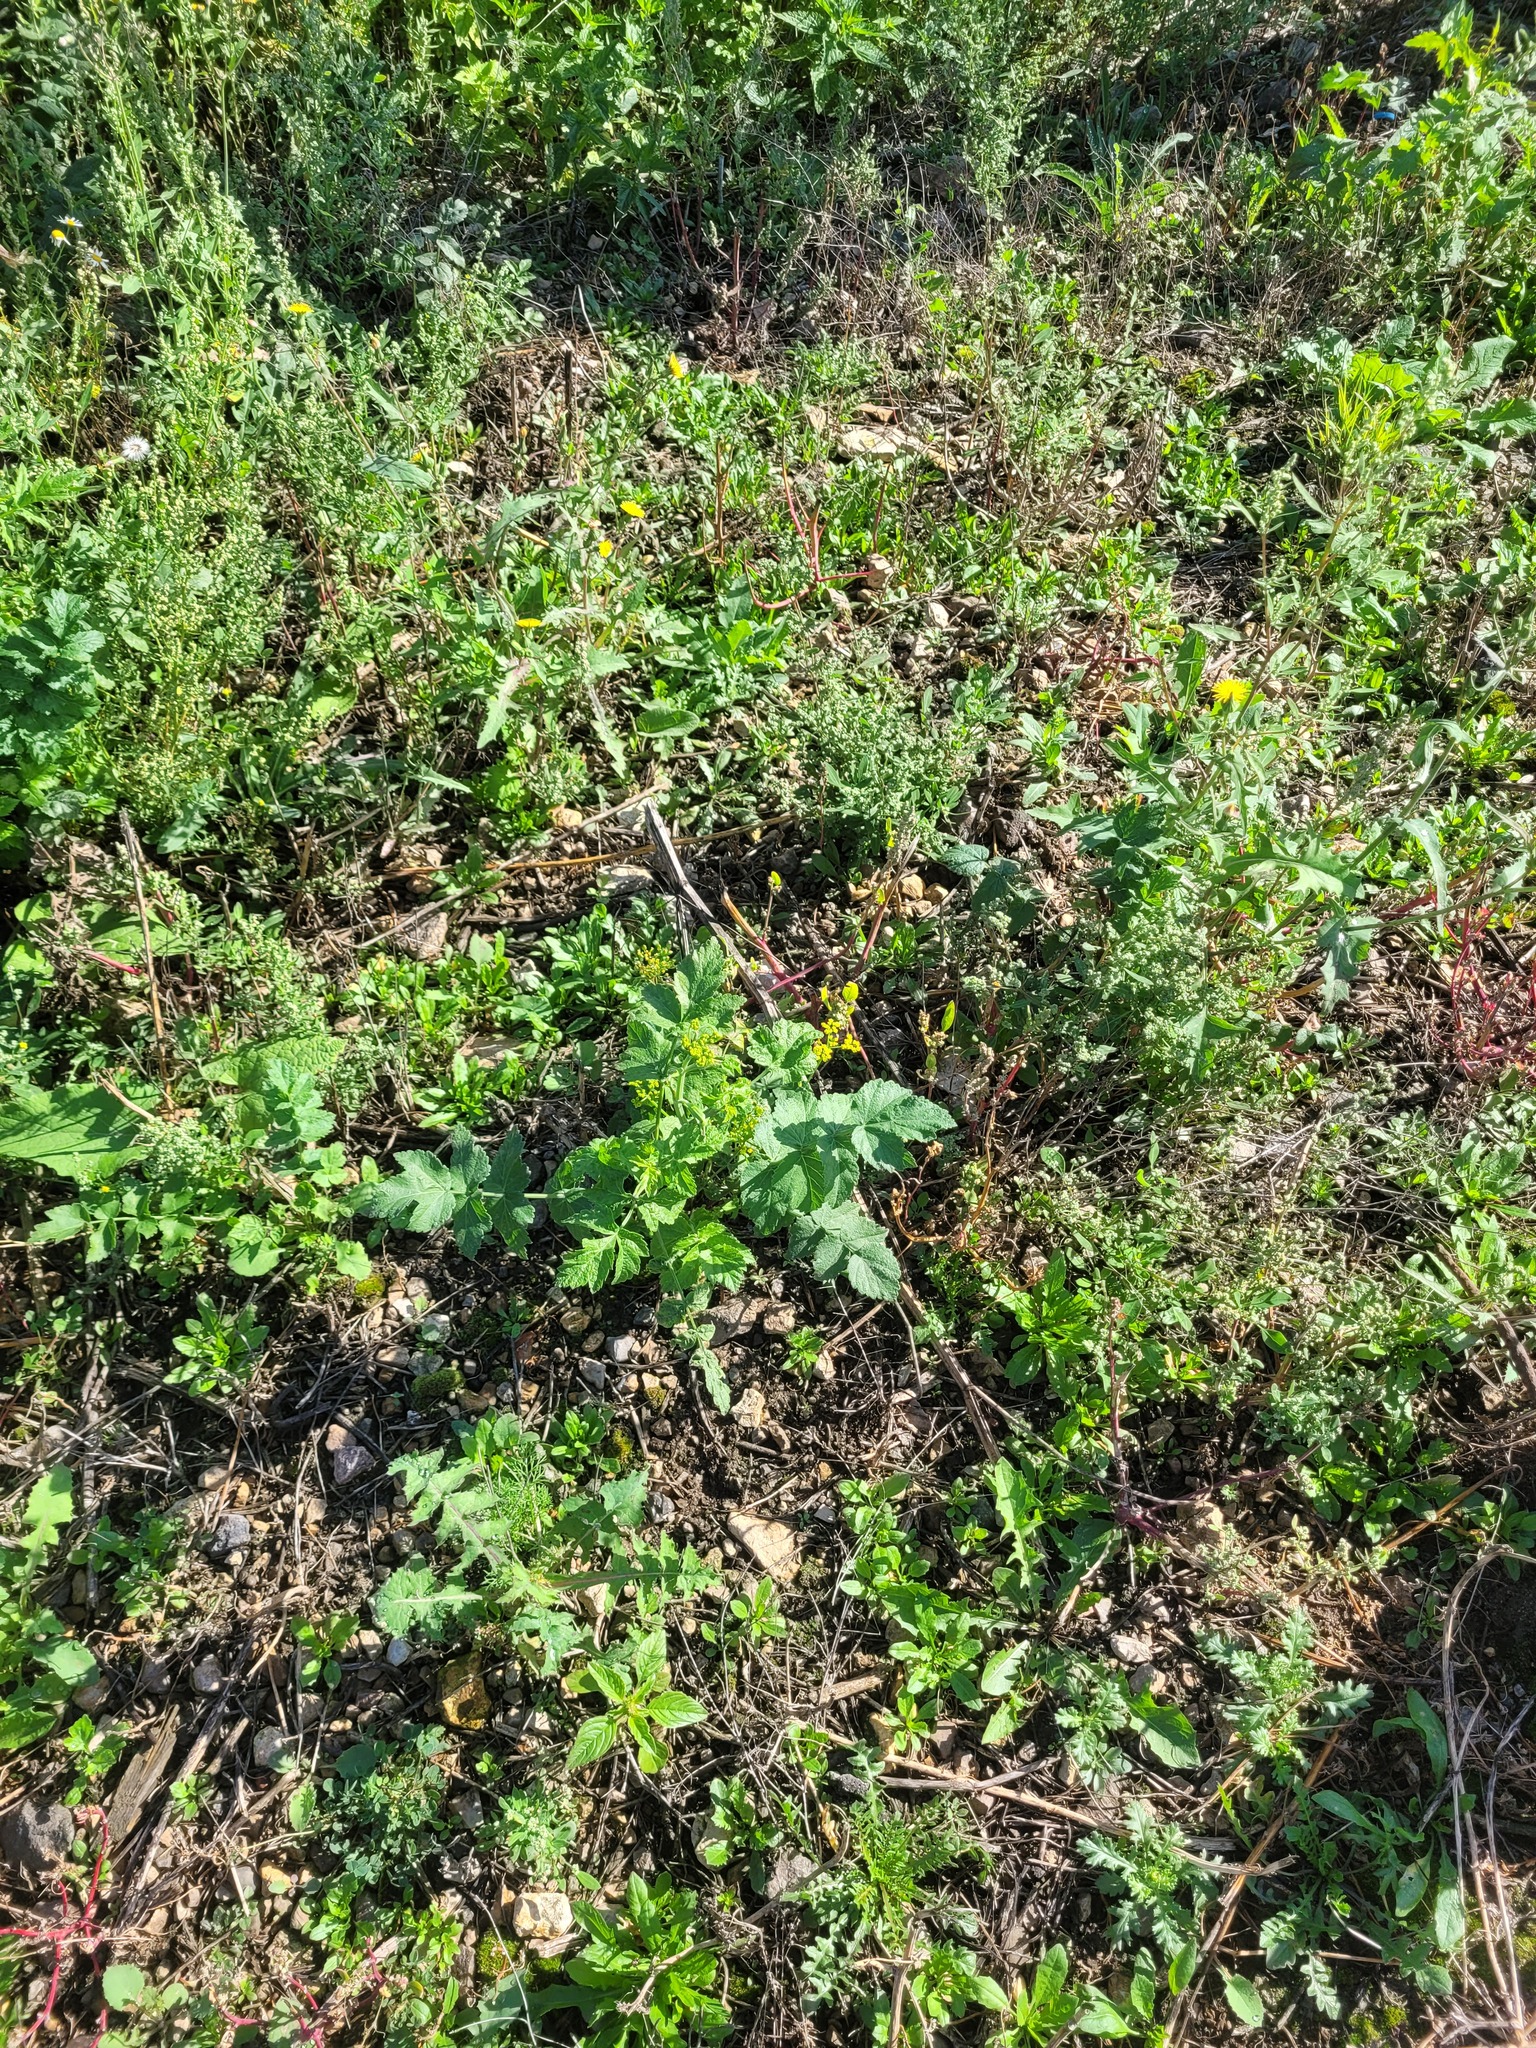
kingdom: Plantae
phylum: Tracheophyta
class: Magnoliopsida
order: Apiales
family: Apiaceae
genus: Pastinaca
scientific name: Pastinaca sativa
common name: Wild parsnip
